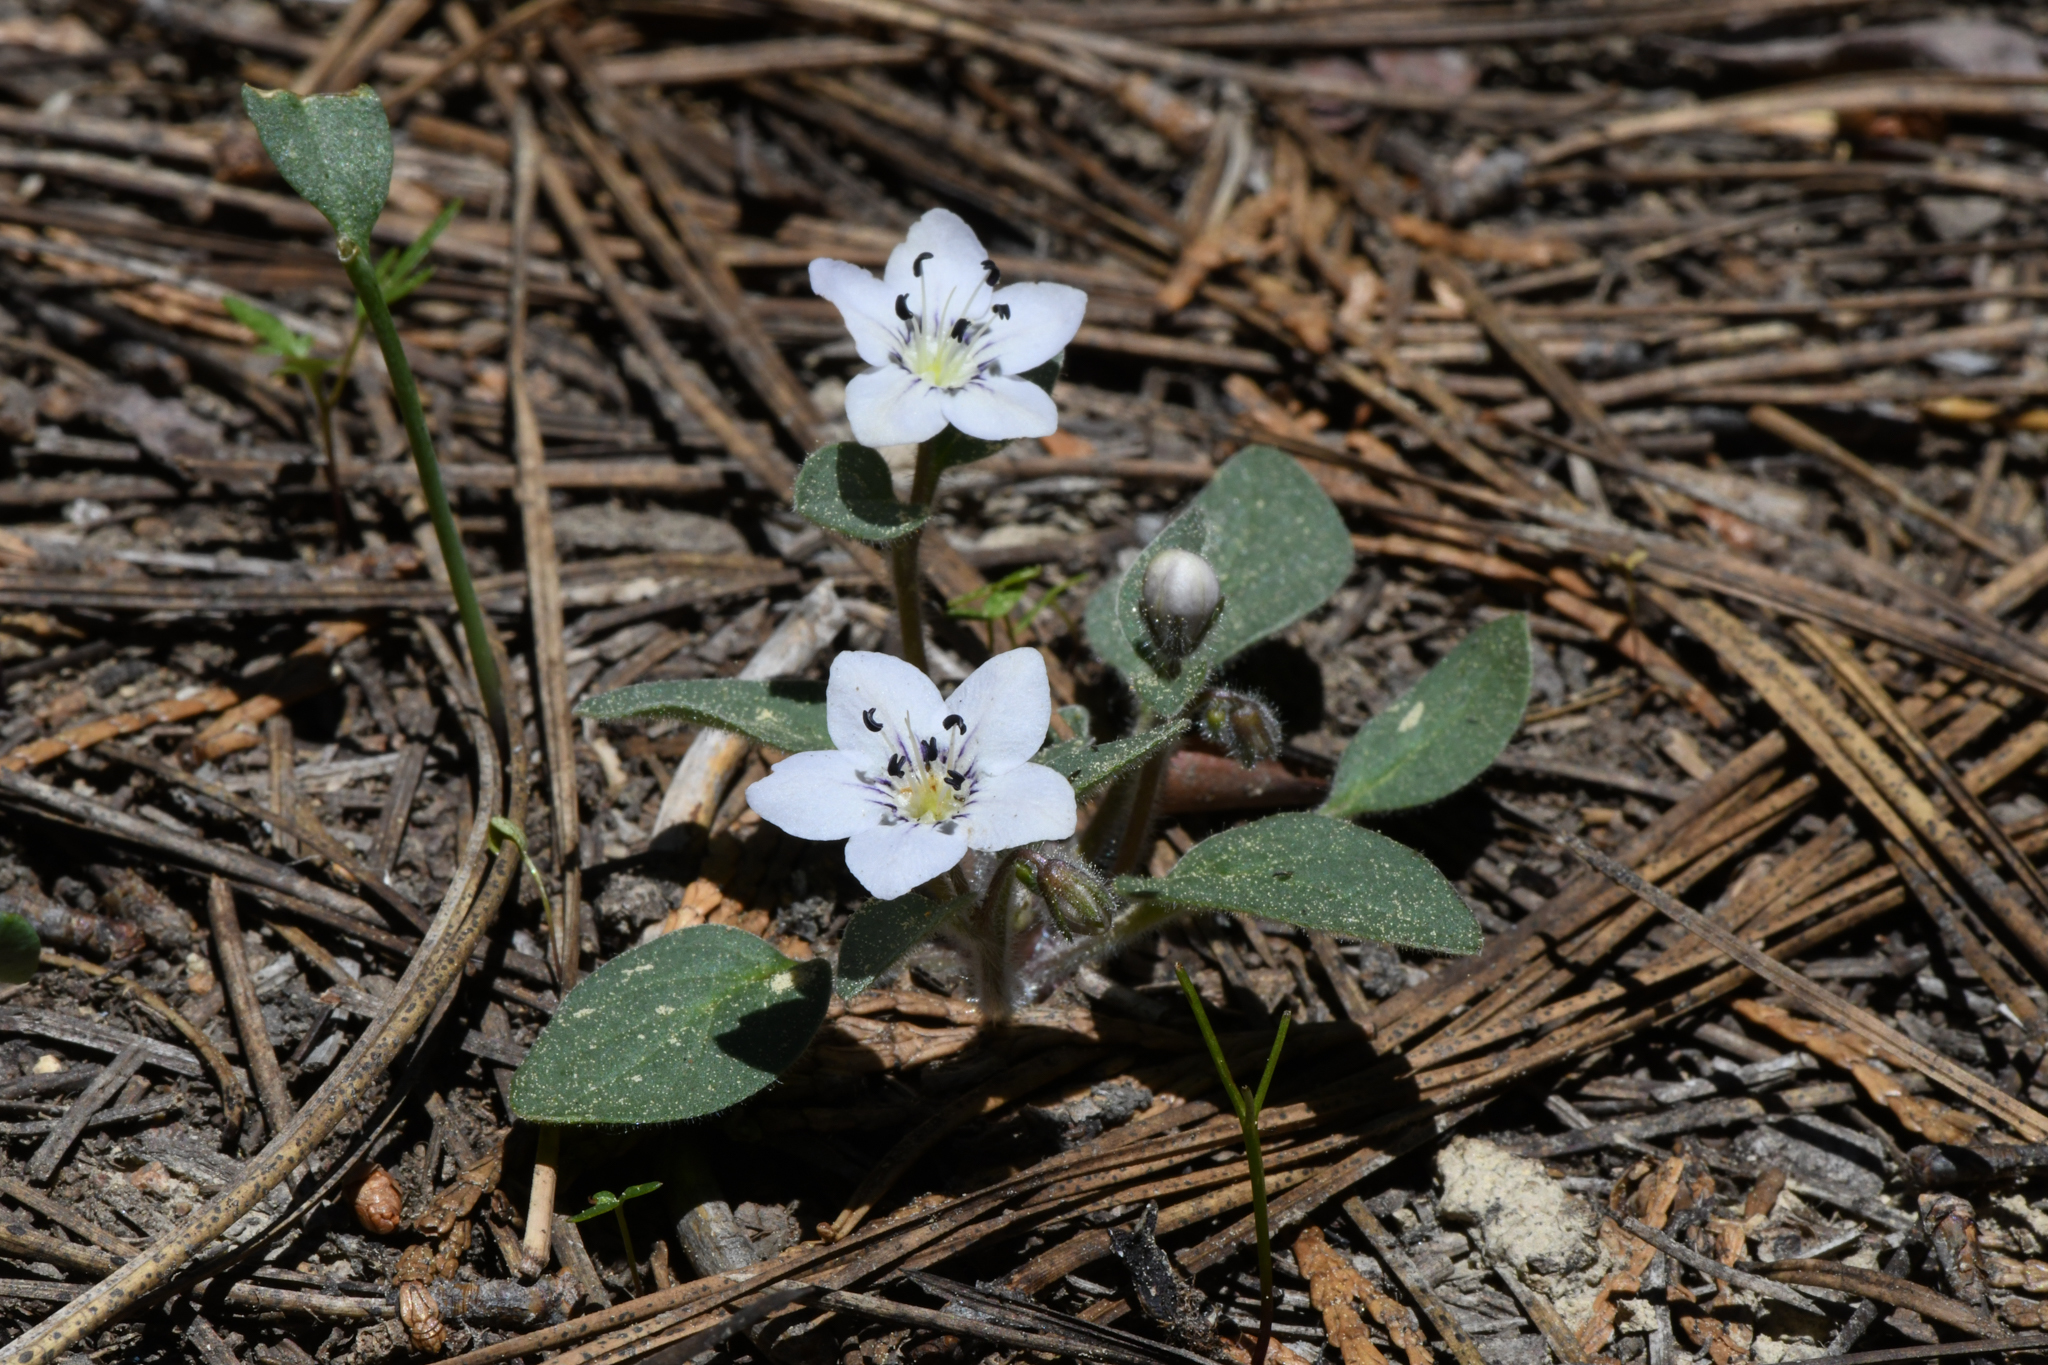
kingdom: Plantae
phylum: Tracheophyta
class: Magnoliopsida
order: Boraginales
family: Hydrophyllaceae
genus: Howellanthus
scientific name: Howellanthus dalesianus
